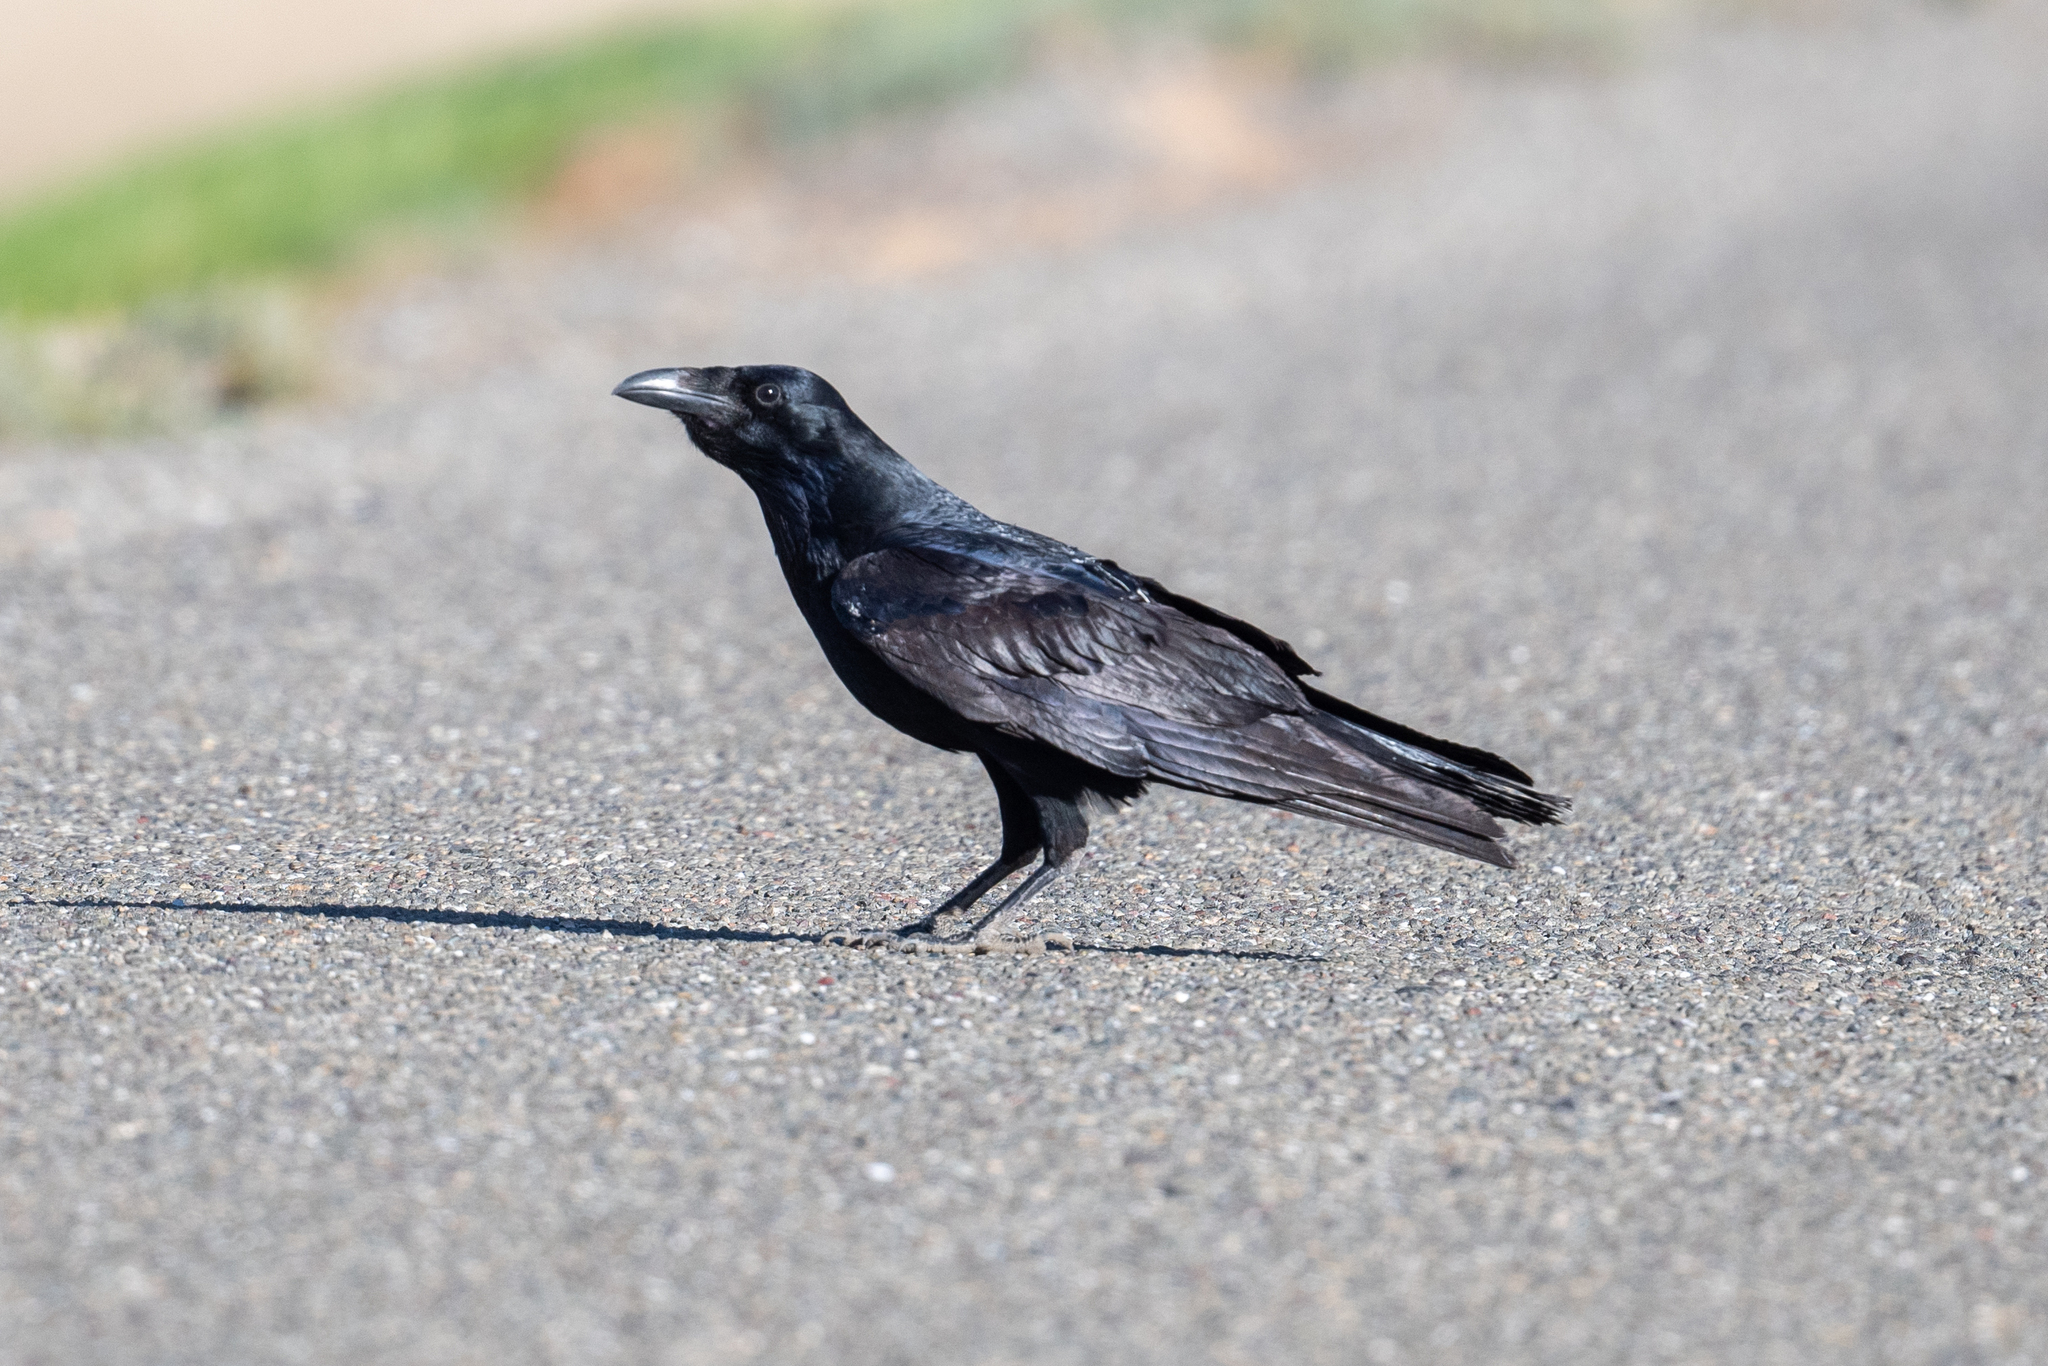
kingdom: Animalia
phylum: Chordata
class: Aves
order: Passeriformes
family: Corvidae
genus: Corvus
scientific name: Corvus corax
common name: Common raven
